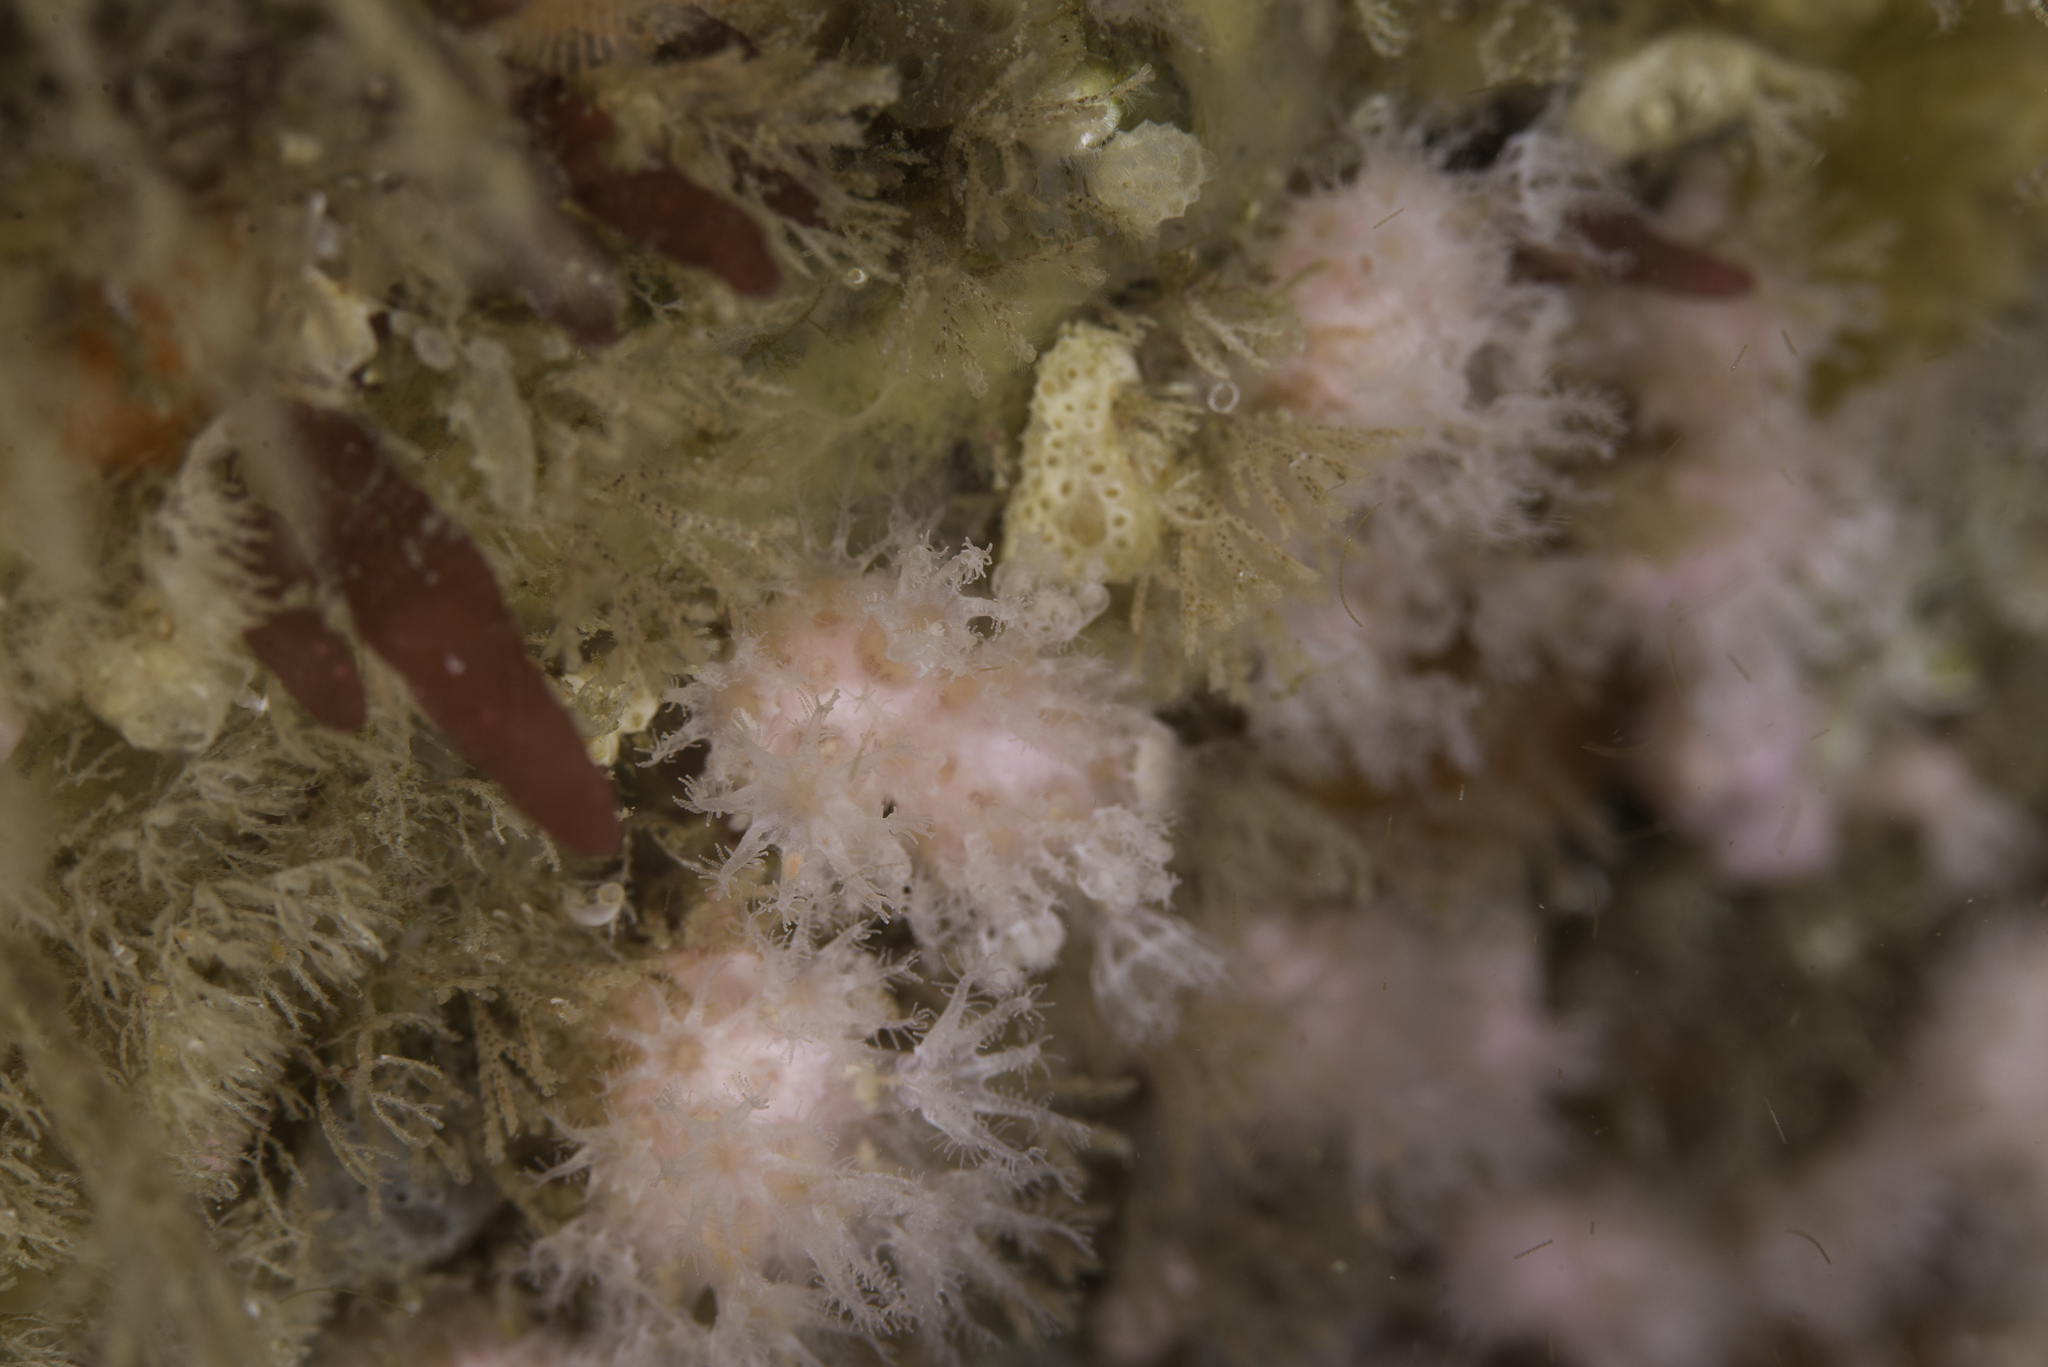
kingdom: Animalia
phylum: Cnidaria
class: Anthozoa
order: Malacalcyonacea
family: Alcyoniidae
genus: Alcyonium
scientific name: Alcyonium hibernicum
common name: Pink sea fingers
